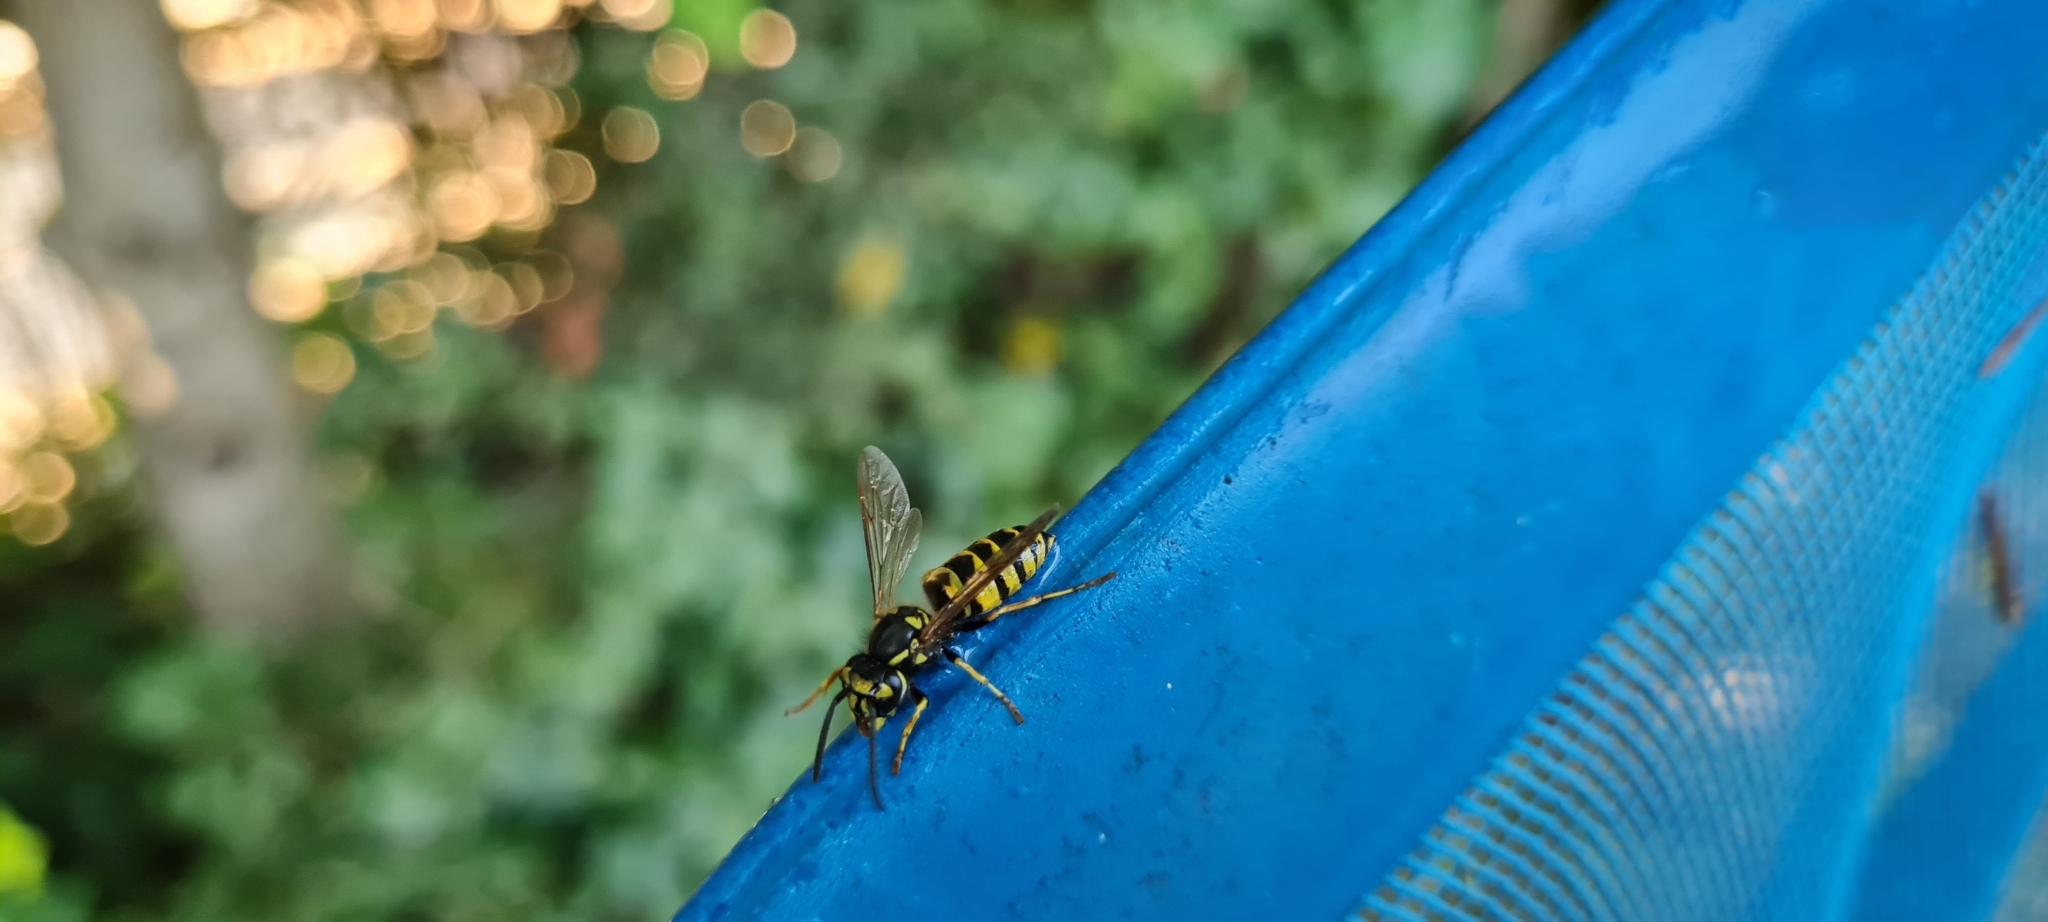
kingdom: Animalia
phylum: Arthropoda
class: Insecta
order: Hymenoptera
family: Vespidae
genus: Vespula
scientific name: Vespula vulgaris
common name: Common wasp
